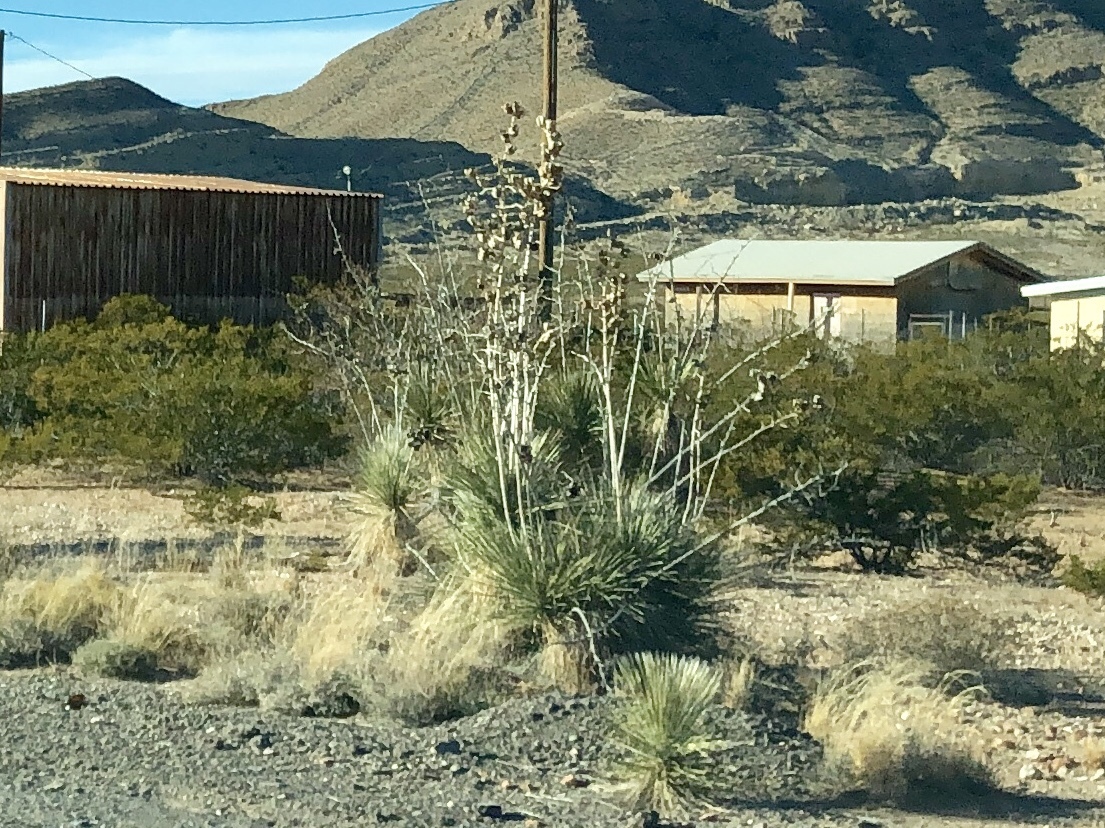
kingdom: Plantae
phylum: Tracheophyta
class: Liliopsida
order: Asparagales
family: Asparagaceae
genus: Yucca
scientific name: Yucca elata
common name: Palmella
